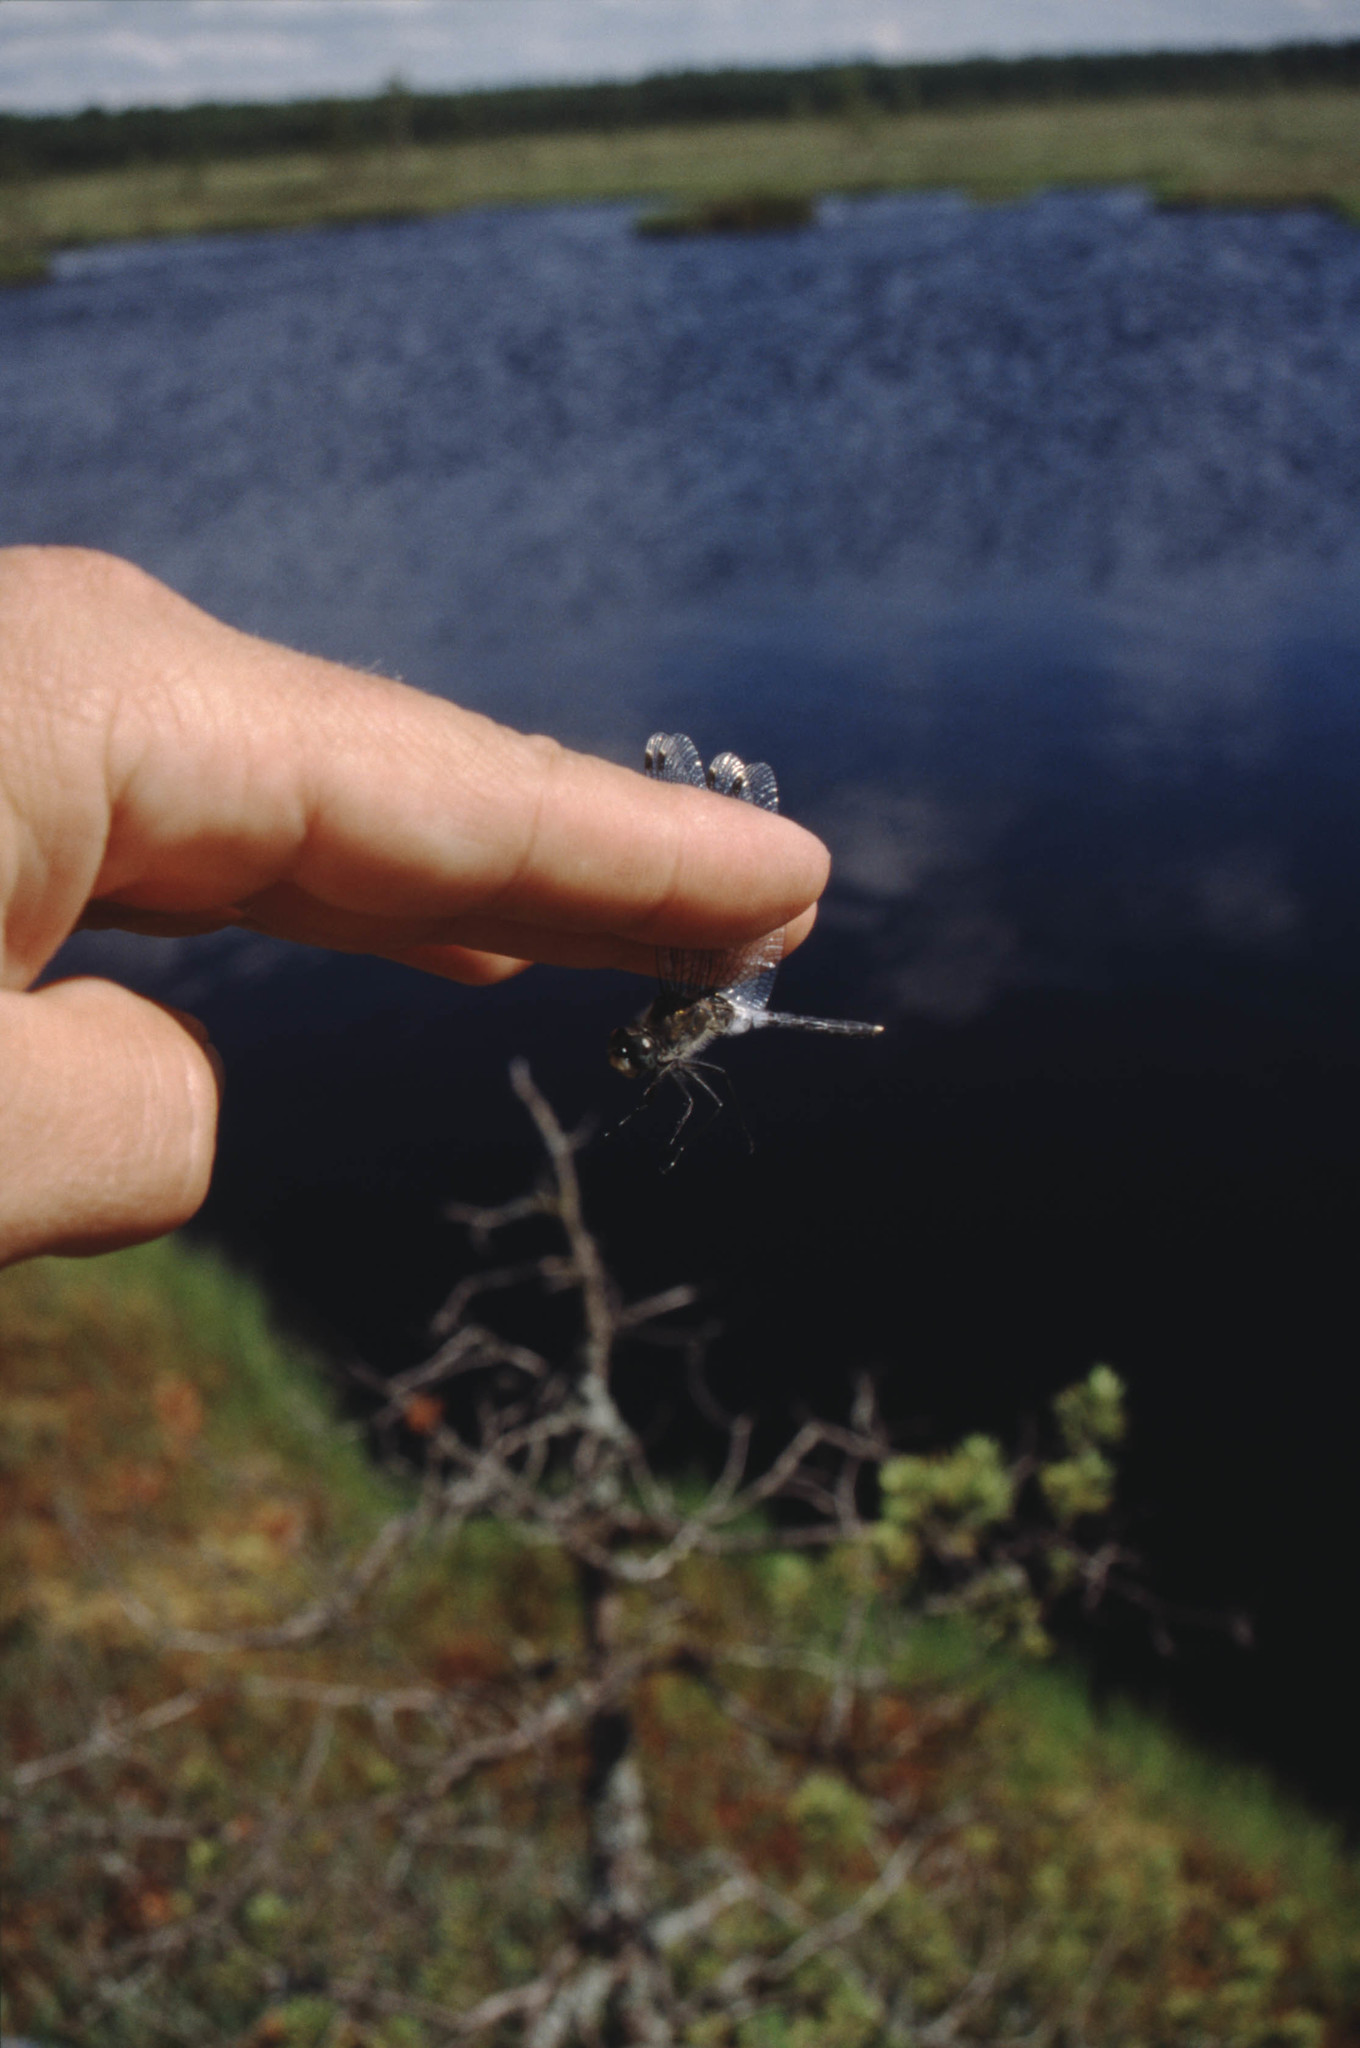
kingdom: Animalia
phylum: Arthropoda
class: Insecta
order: Odonata
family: Libellulidae
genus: Leucorrhinia
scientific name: Leucorrhinia albifrons
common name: Dark whiteface
